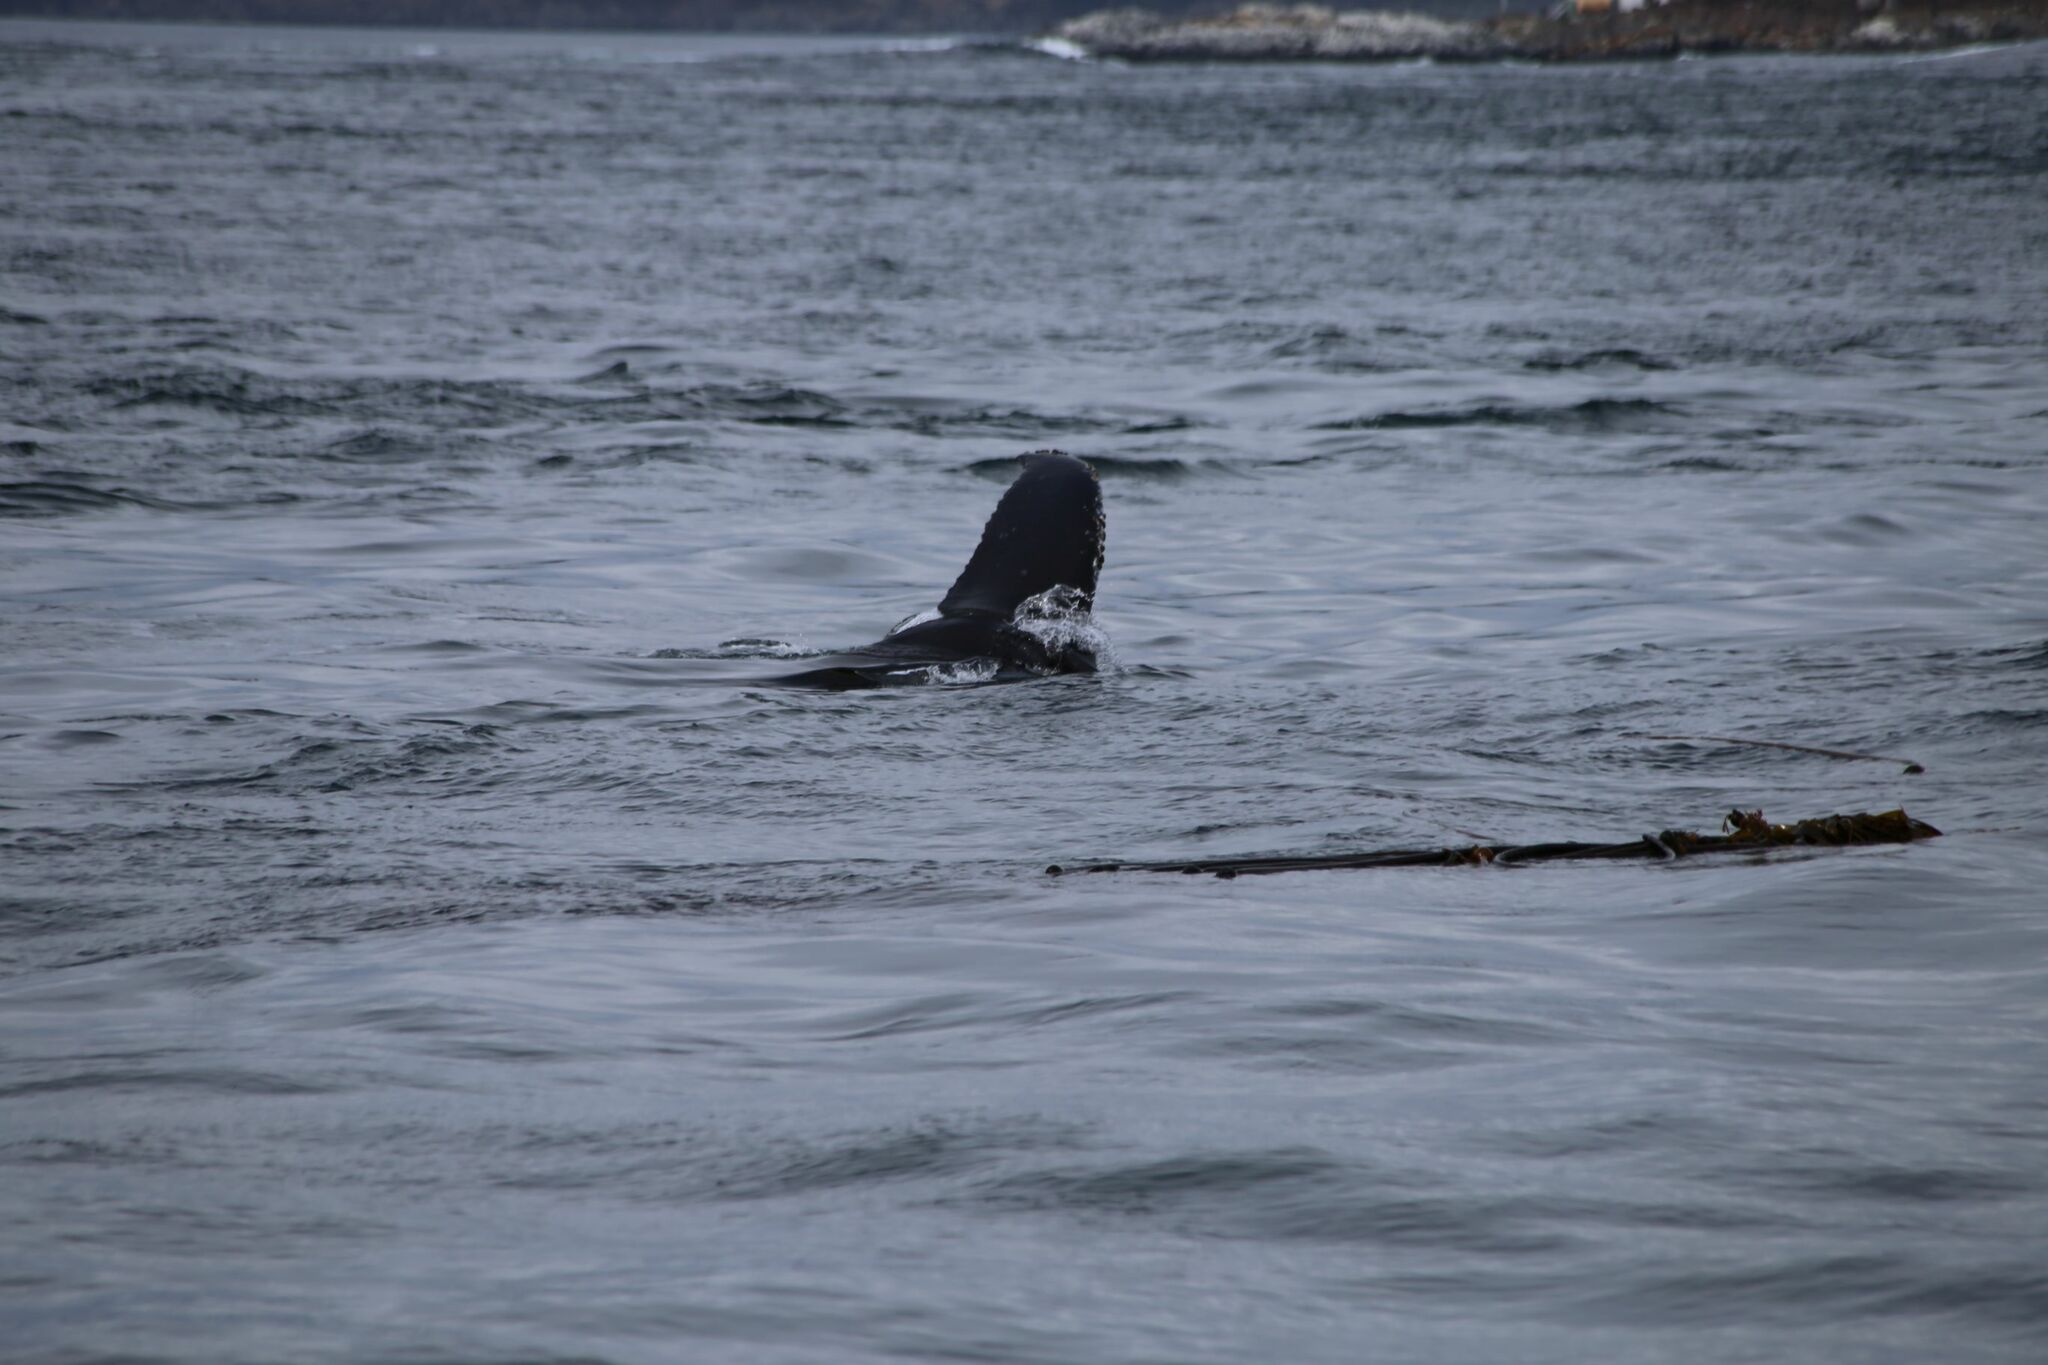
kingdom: Animalia
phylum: Chordata
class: Mammalia
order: Cetacea
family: Balaenopteridae
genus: Megaptera
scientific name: Megaptera novaeangliae
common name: Humpback whale
